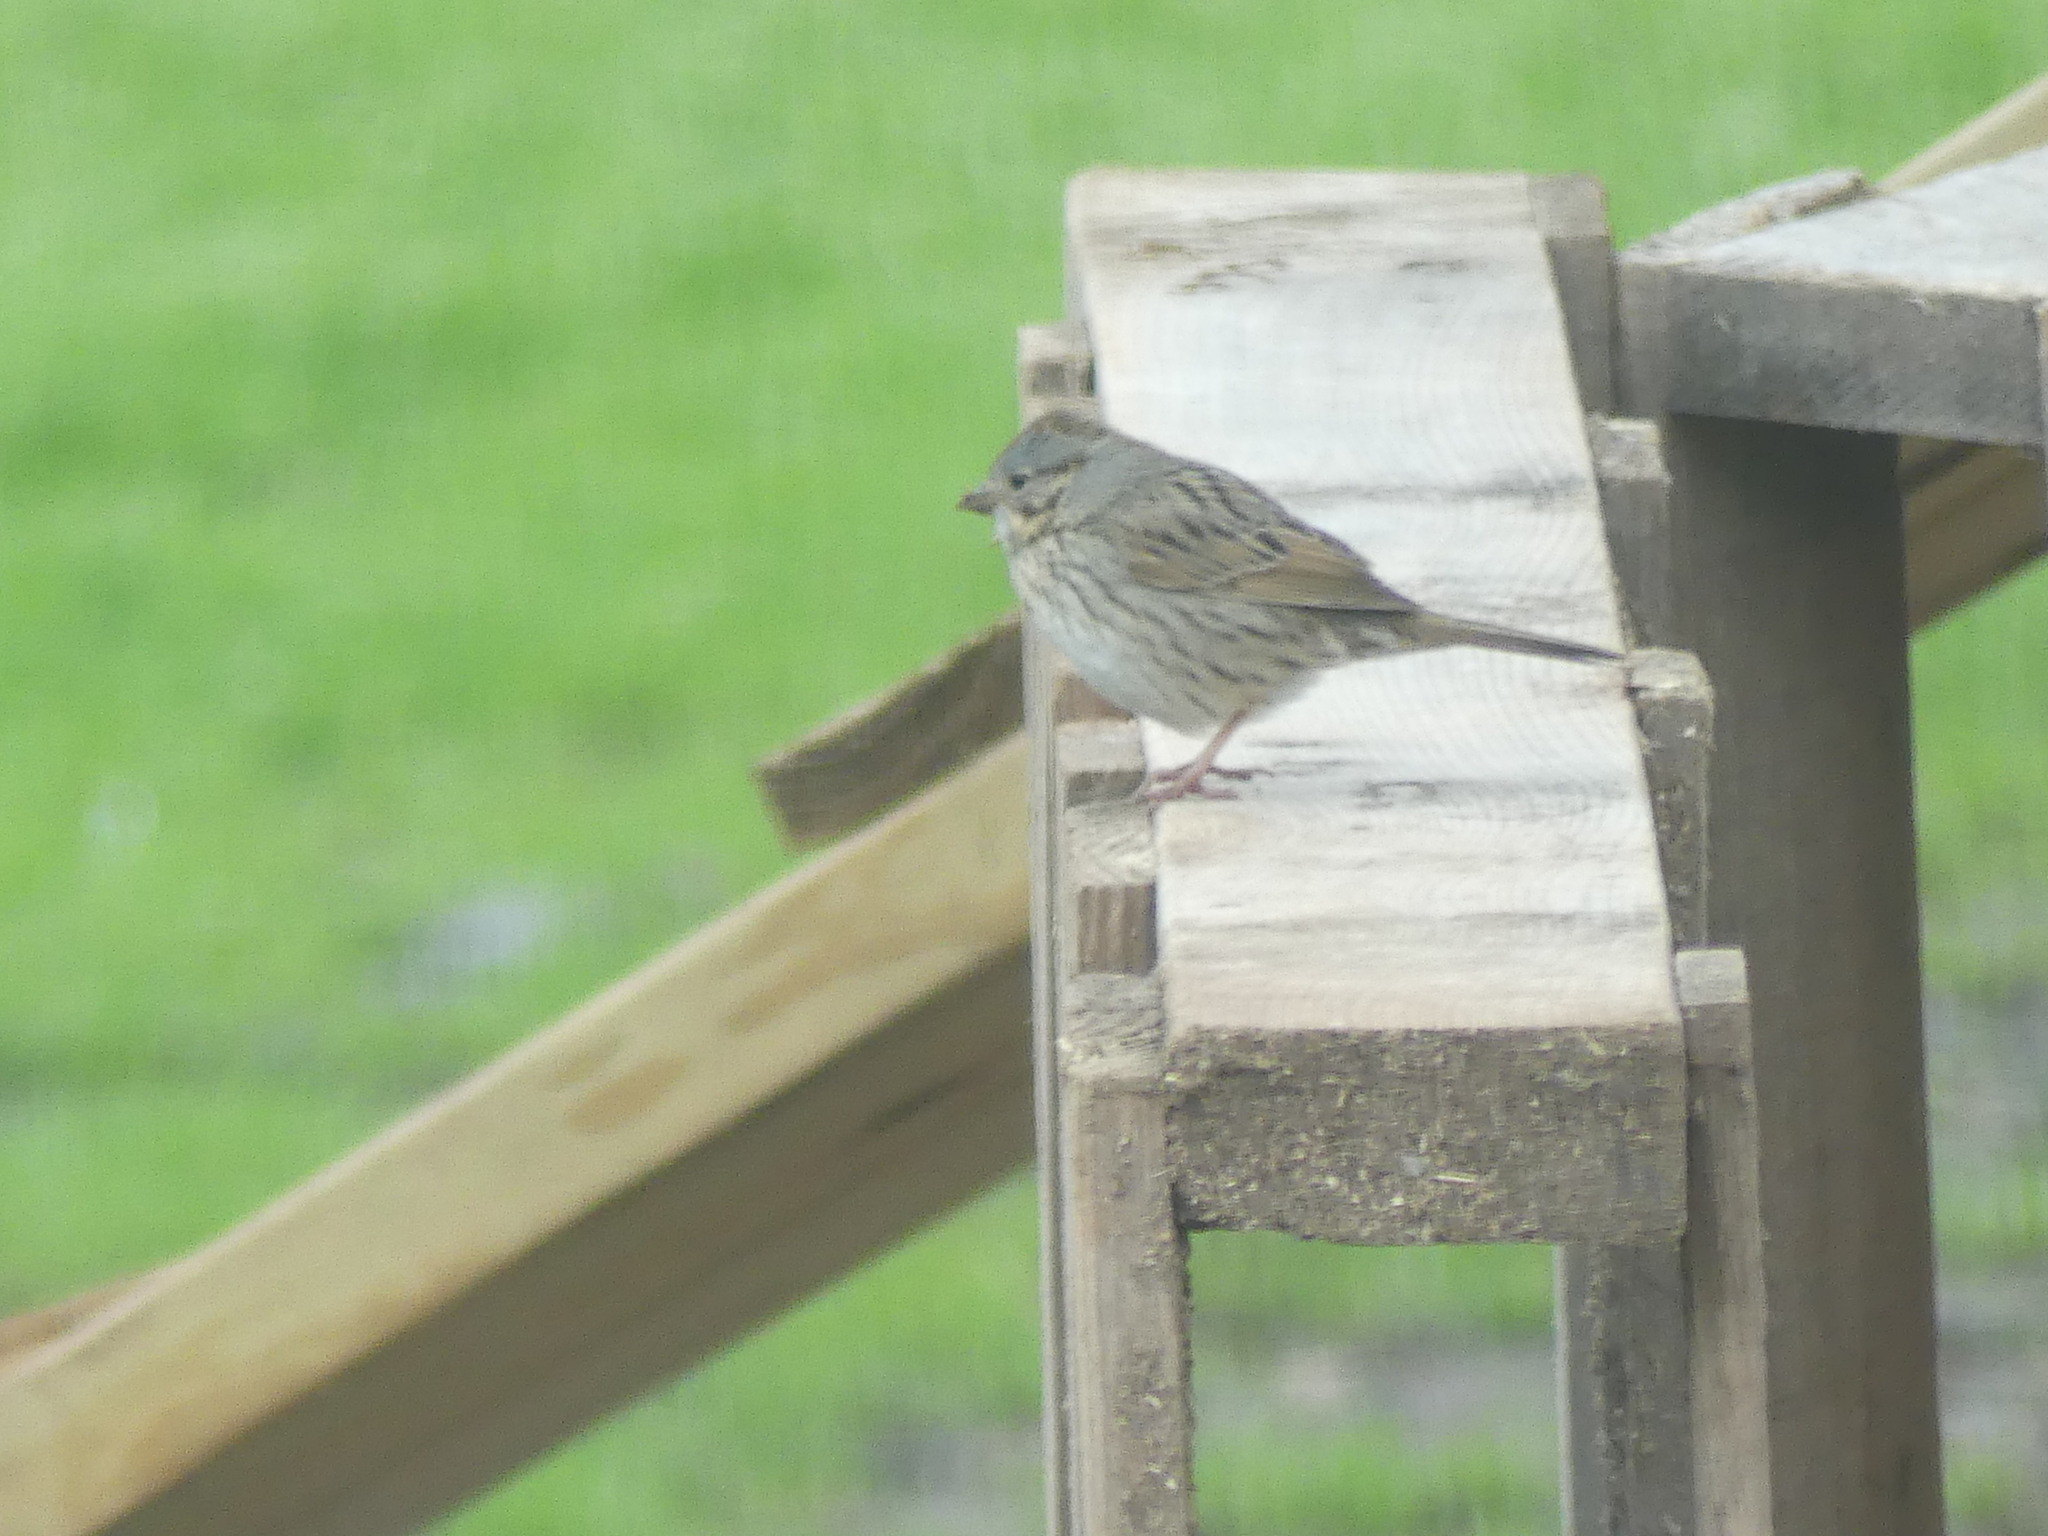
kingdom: Animalia
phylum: Chordata
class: Aves
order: Passeriformes
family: Passerellidae
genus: Melospiza
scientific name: Melospiza lincolnii
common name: Lincoln's sparrow
